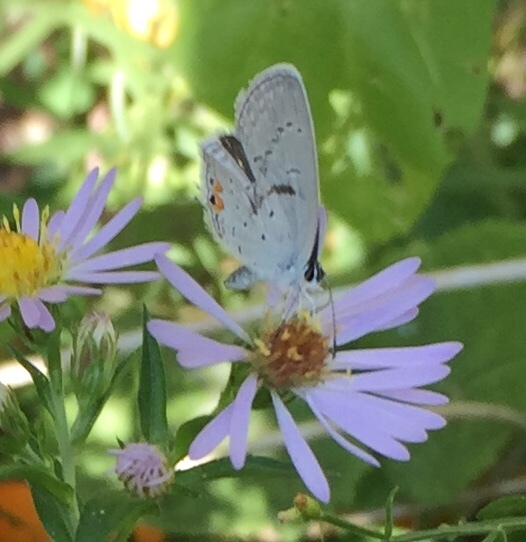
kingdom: Animalia
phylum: Arthropoda
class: Insecta
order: Lepidoptera
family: Lycaenidae
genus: Elkalyce
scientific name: Elkalyce comyntas
